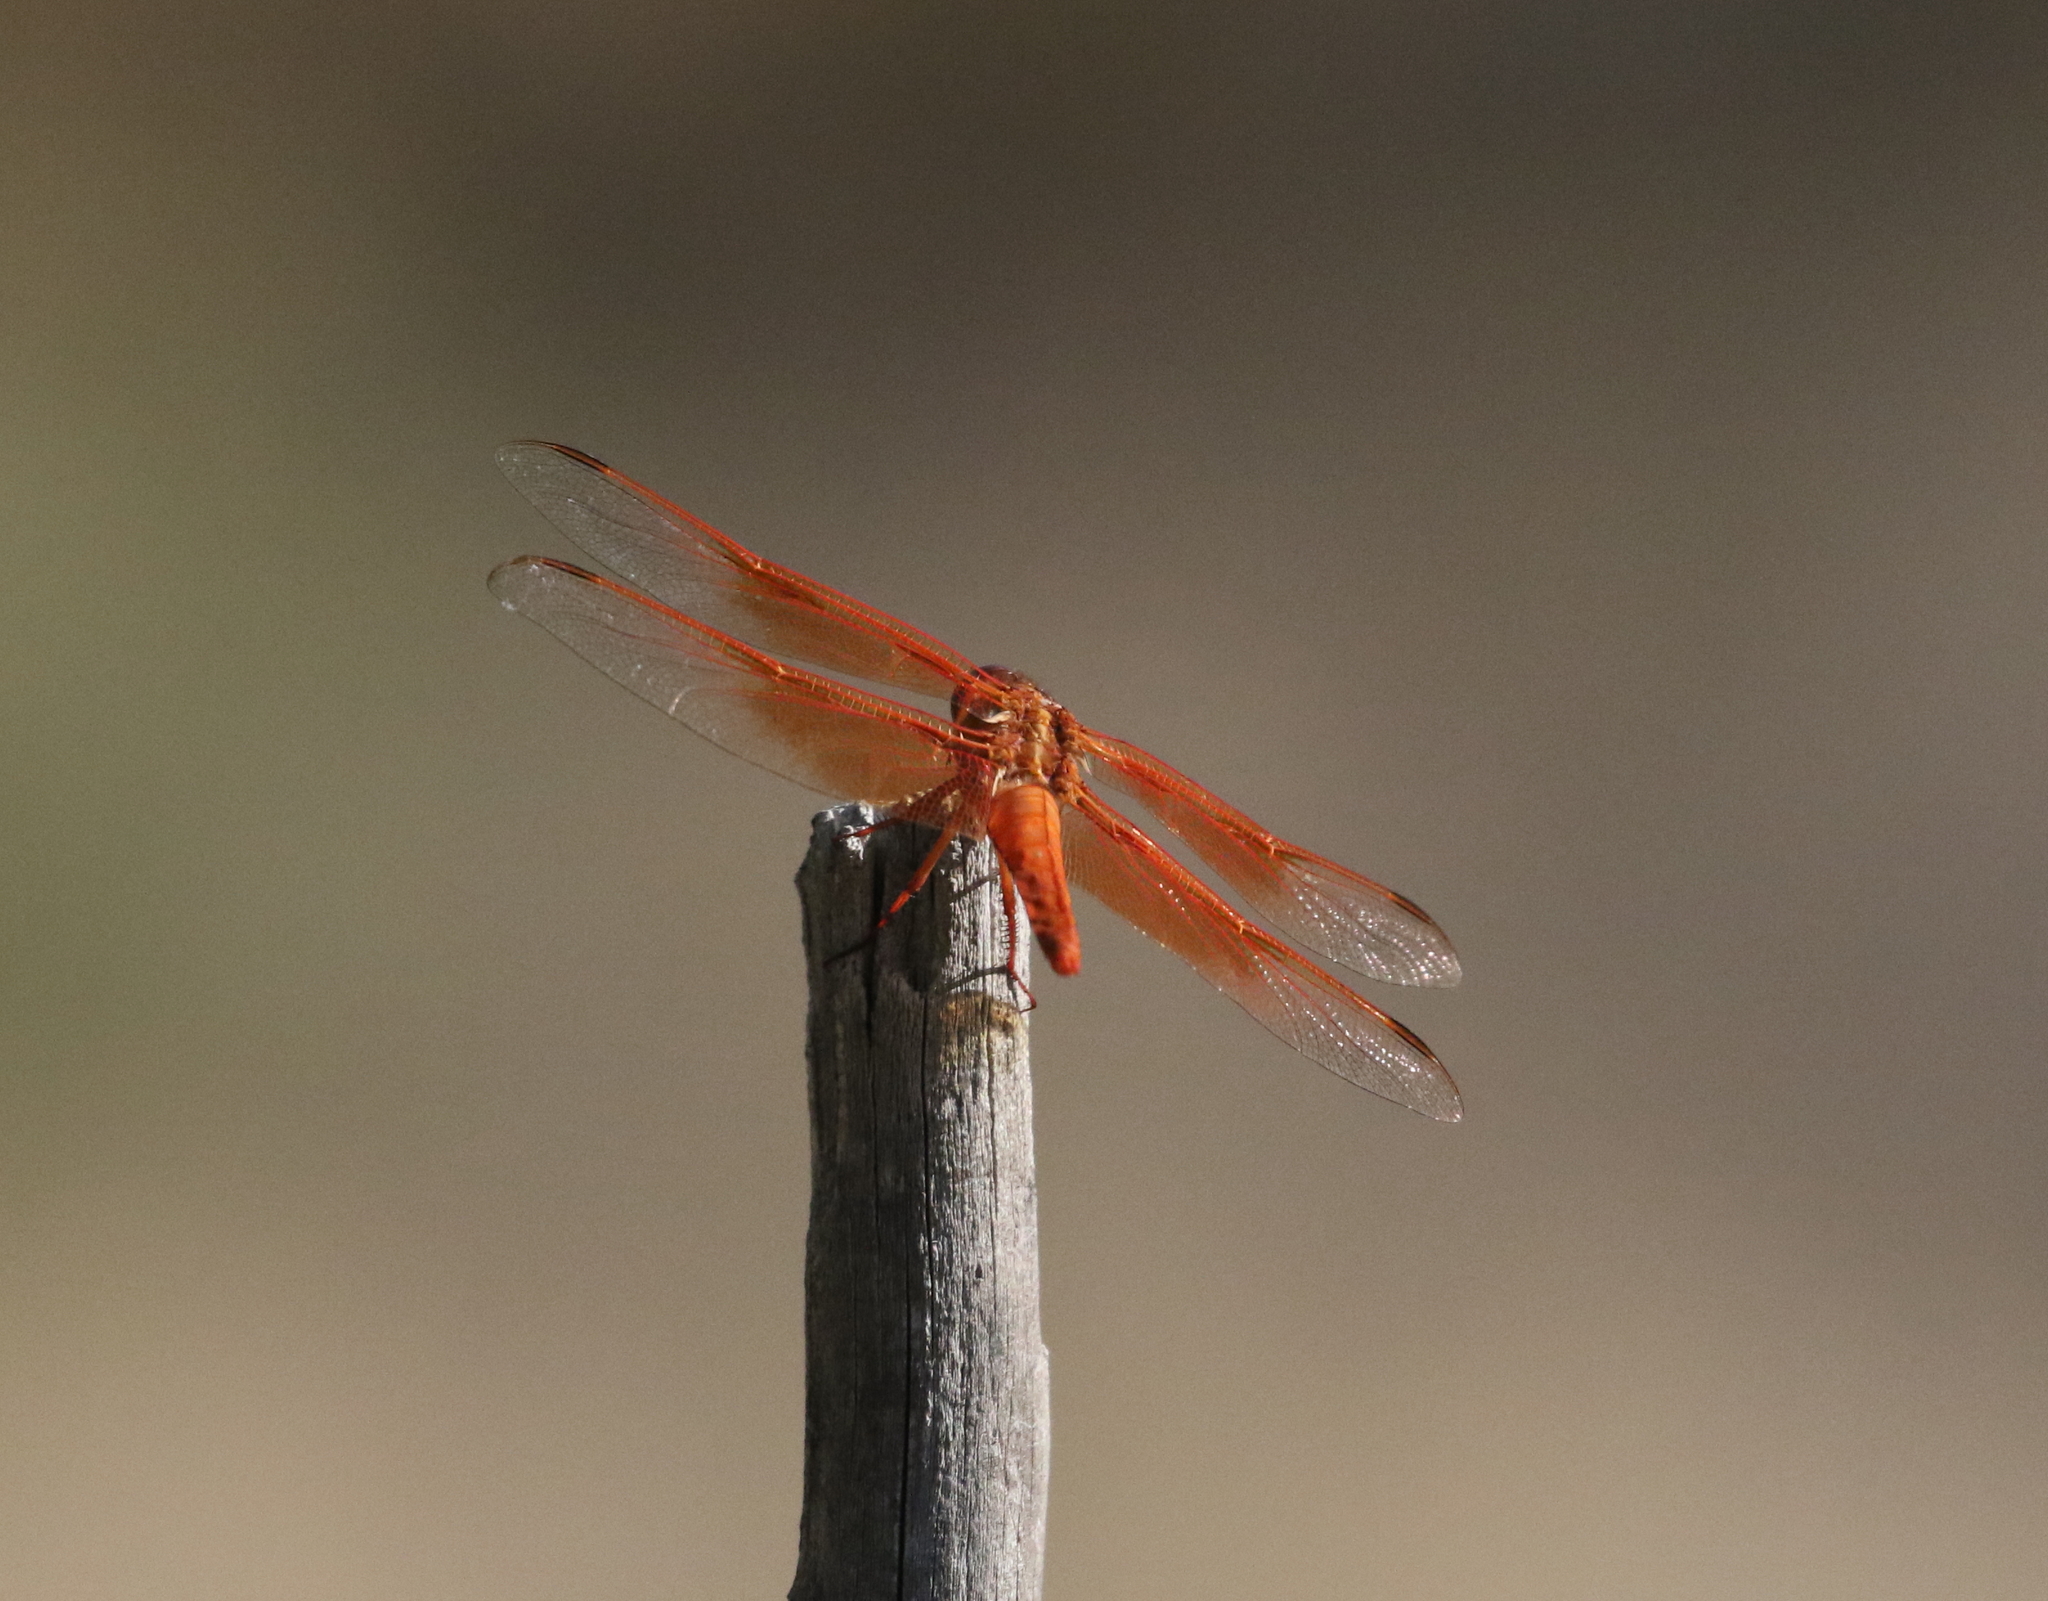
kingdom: Animalia
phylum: Arthropoda
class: Insecta
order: Odonata
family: Libellulidae
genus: Libellula
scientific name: Libellula saturata
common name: Flame skimmer
